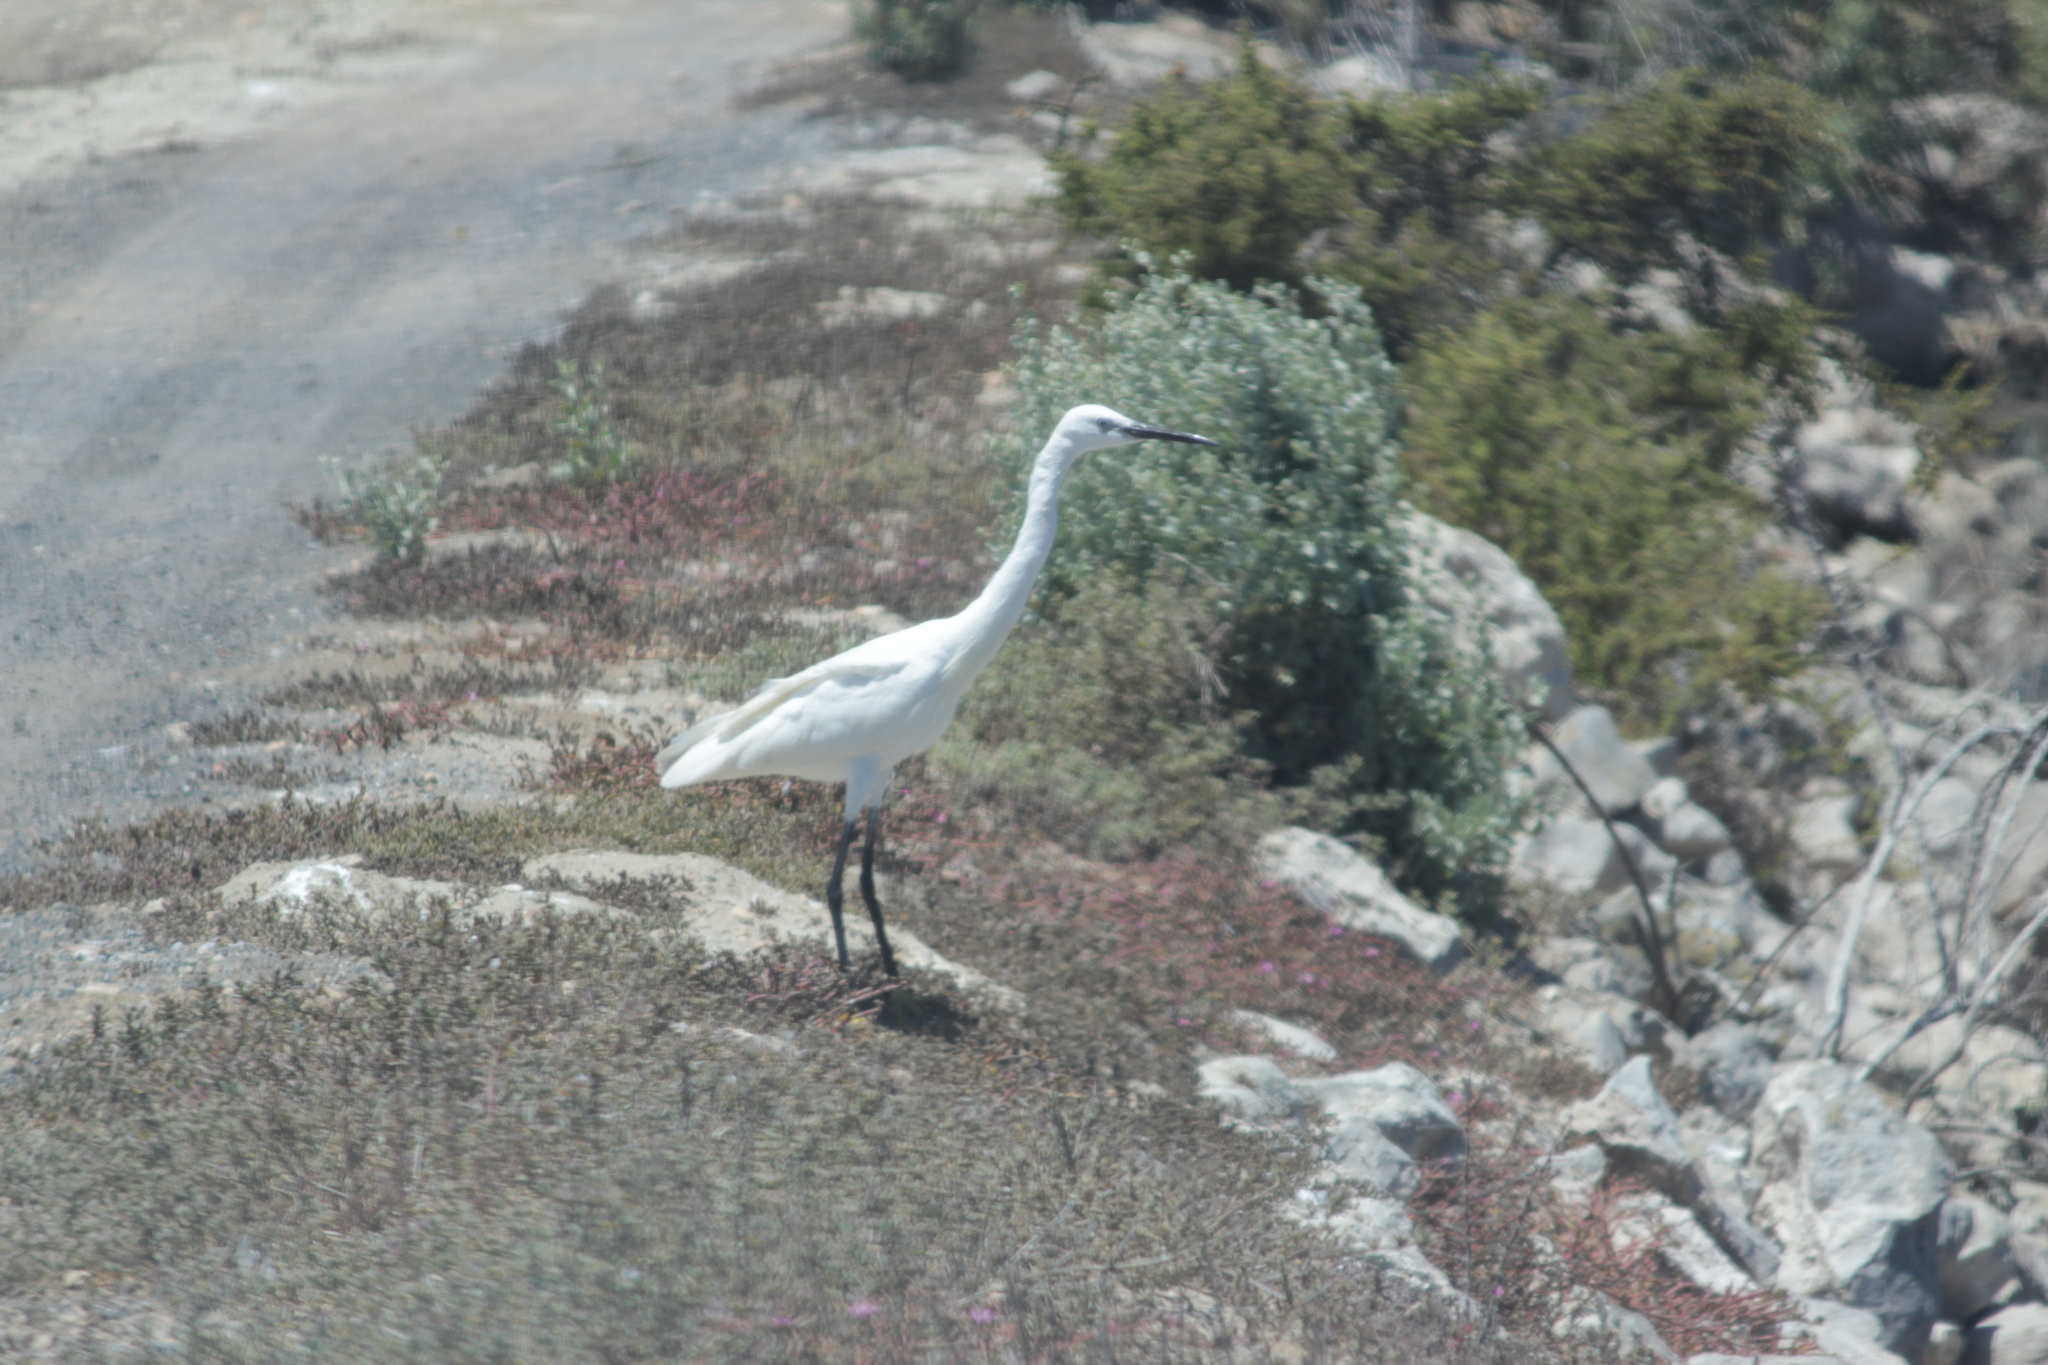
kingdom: Animalia
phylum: Chordata
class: Aves
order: Pelecaniformes
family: Ardeidae
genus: Egretta
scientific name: Egretta garzetta
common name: Little egret
